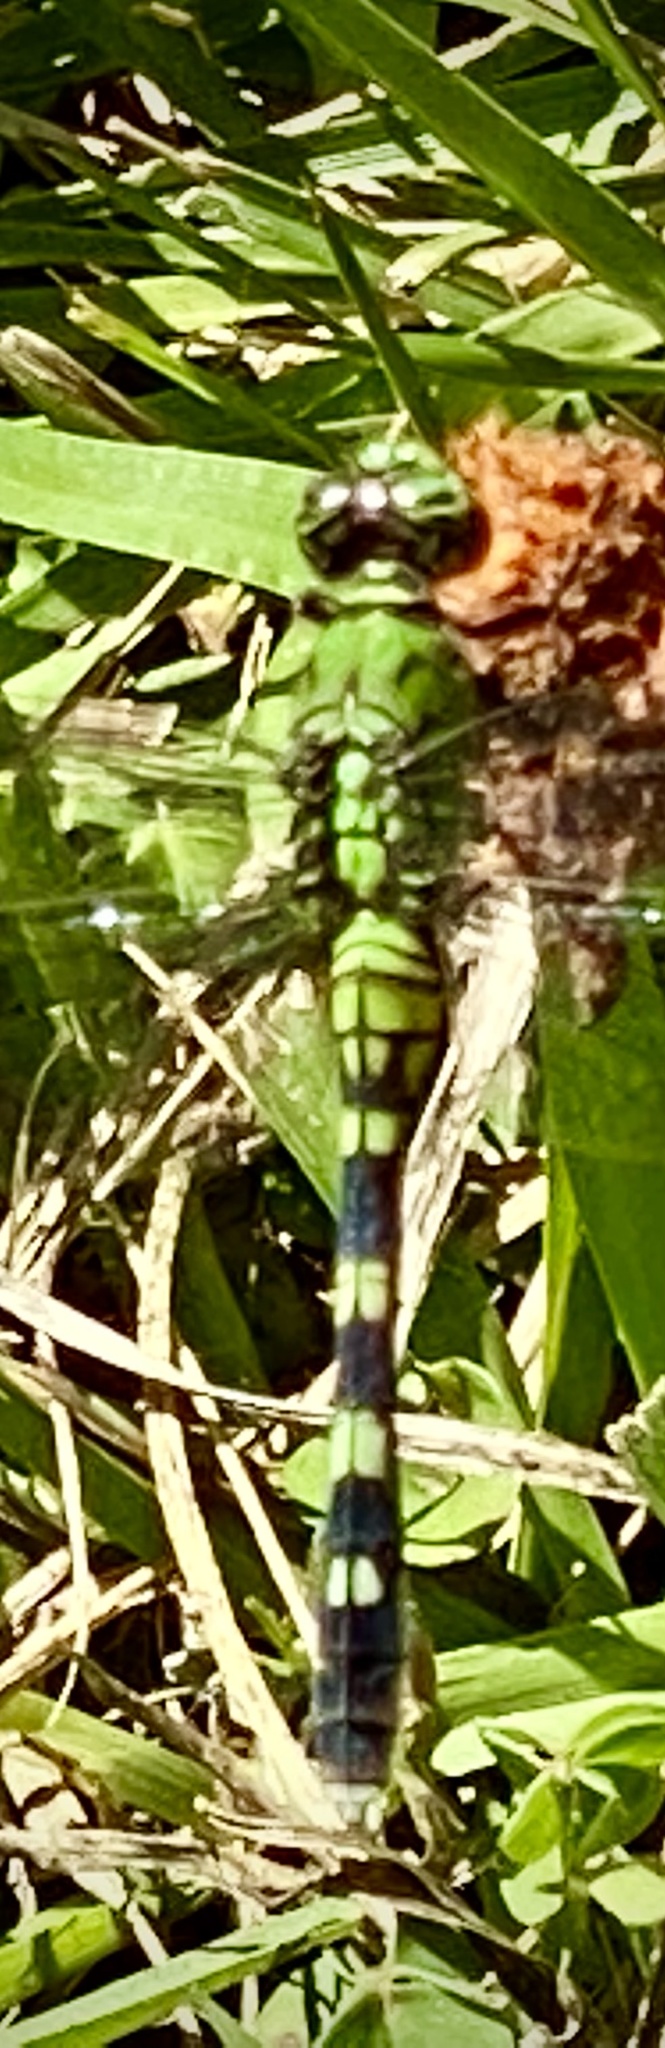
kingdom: Animalia
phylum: Arthropoda
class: Insecta
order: Odonata
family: Libellulidae
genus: Erythemis
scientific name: Erythemis simplicicollis
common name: Eastern pondhawk
